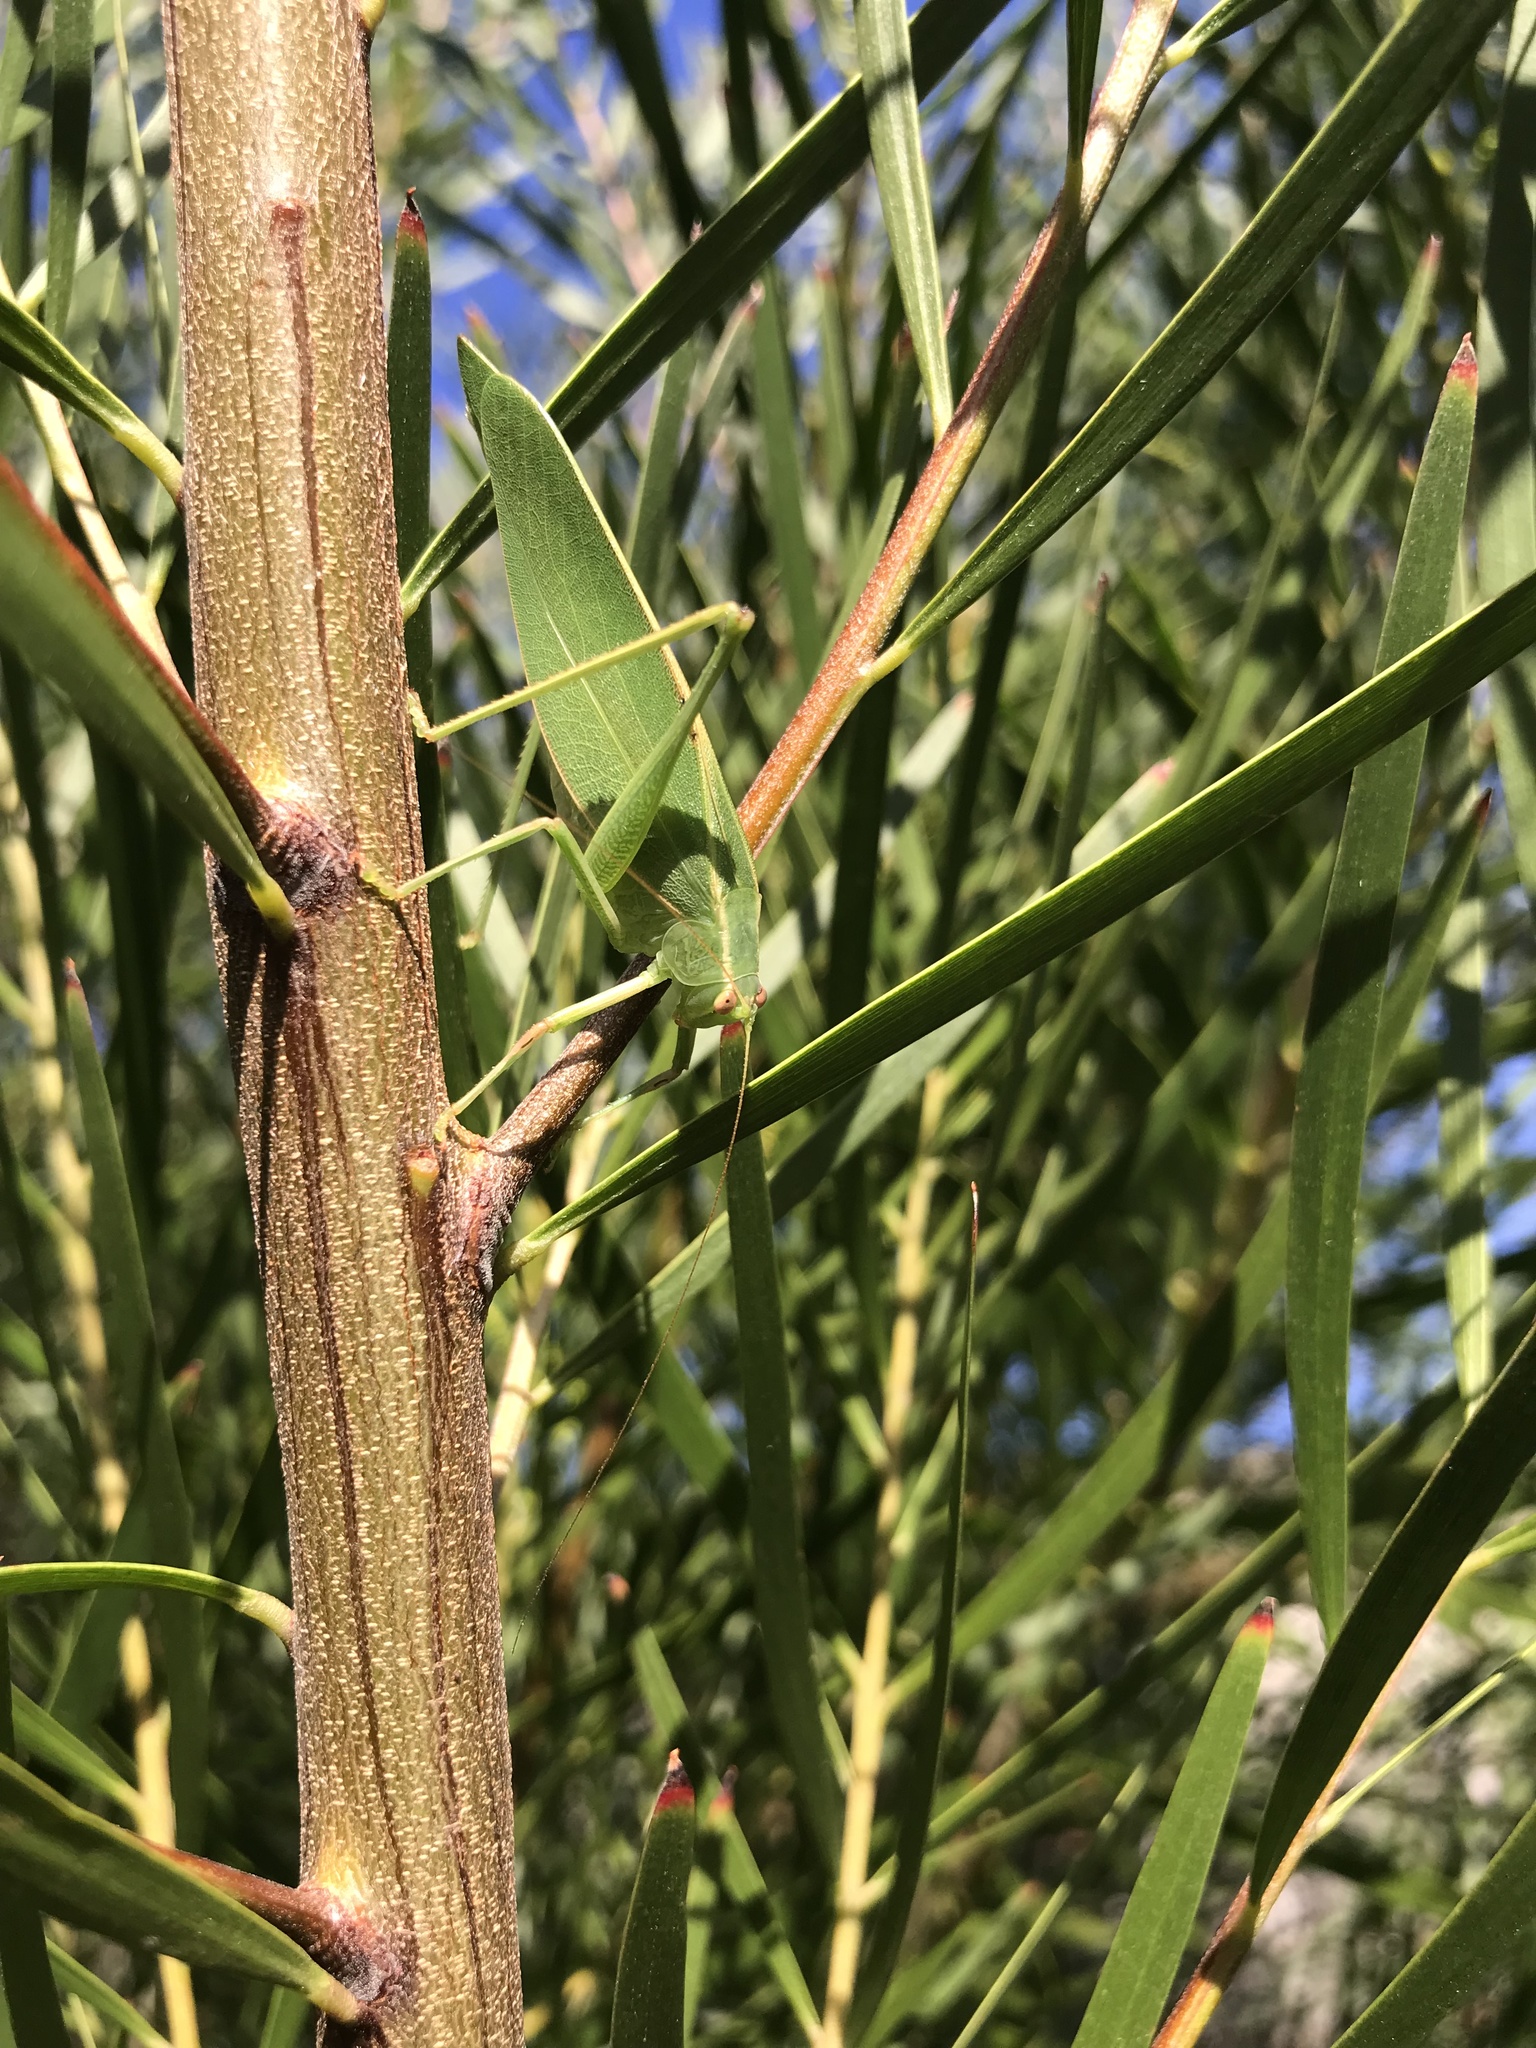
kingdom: Animalia
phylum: Arthropoda
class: Insecta
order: Orthoptera
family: Tettigoniidae
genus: Caedicia
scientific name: Caedicia simplex
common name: Common garden katydid
